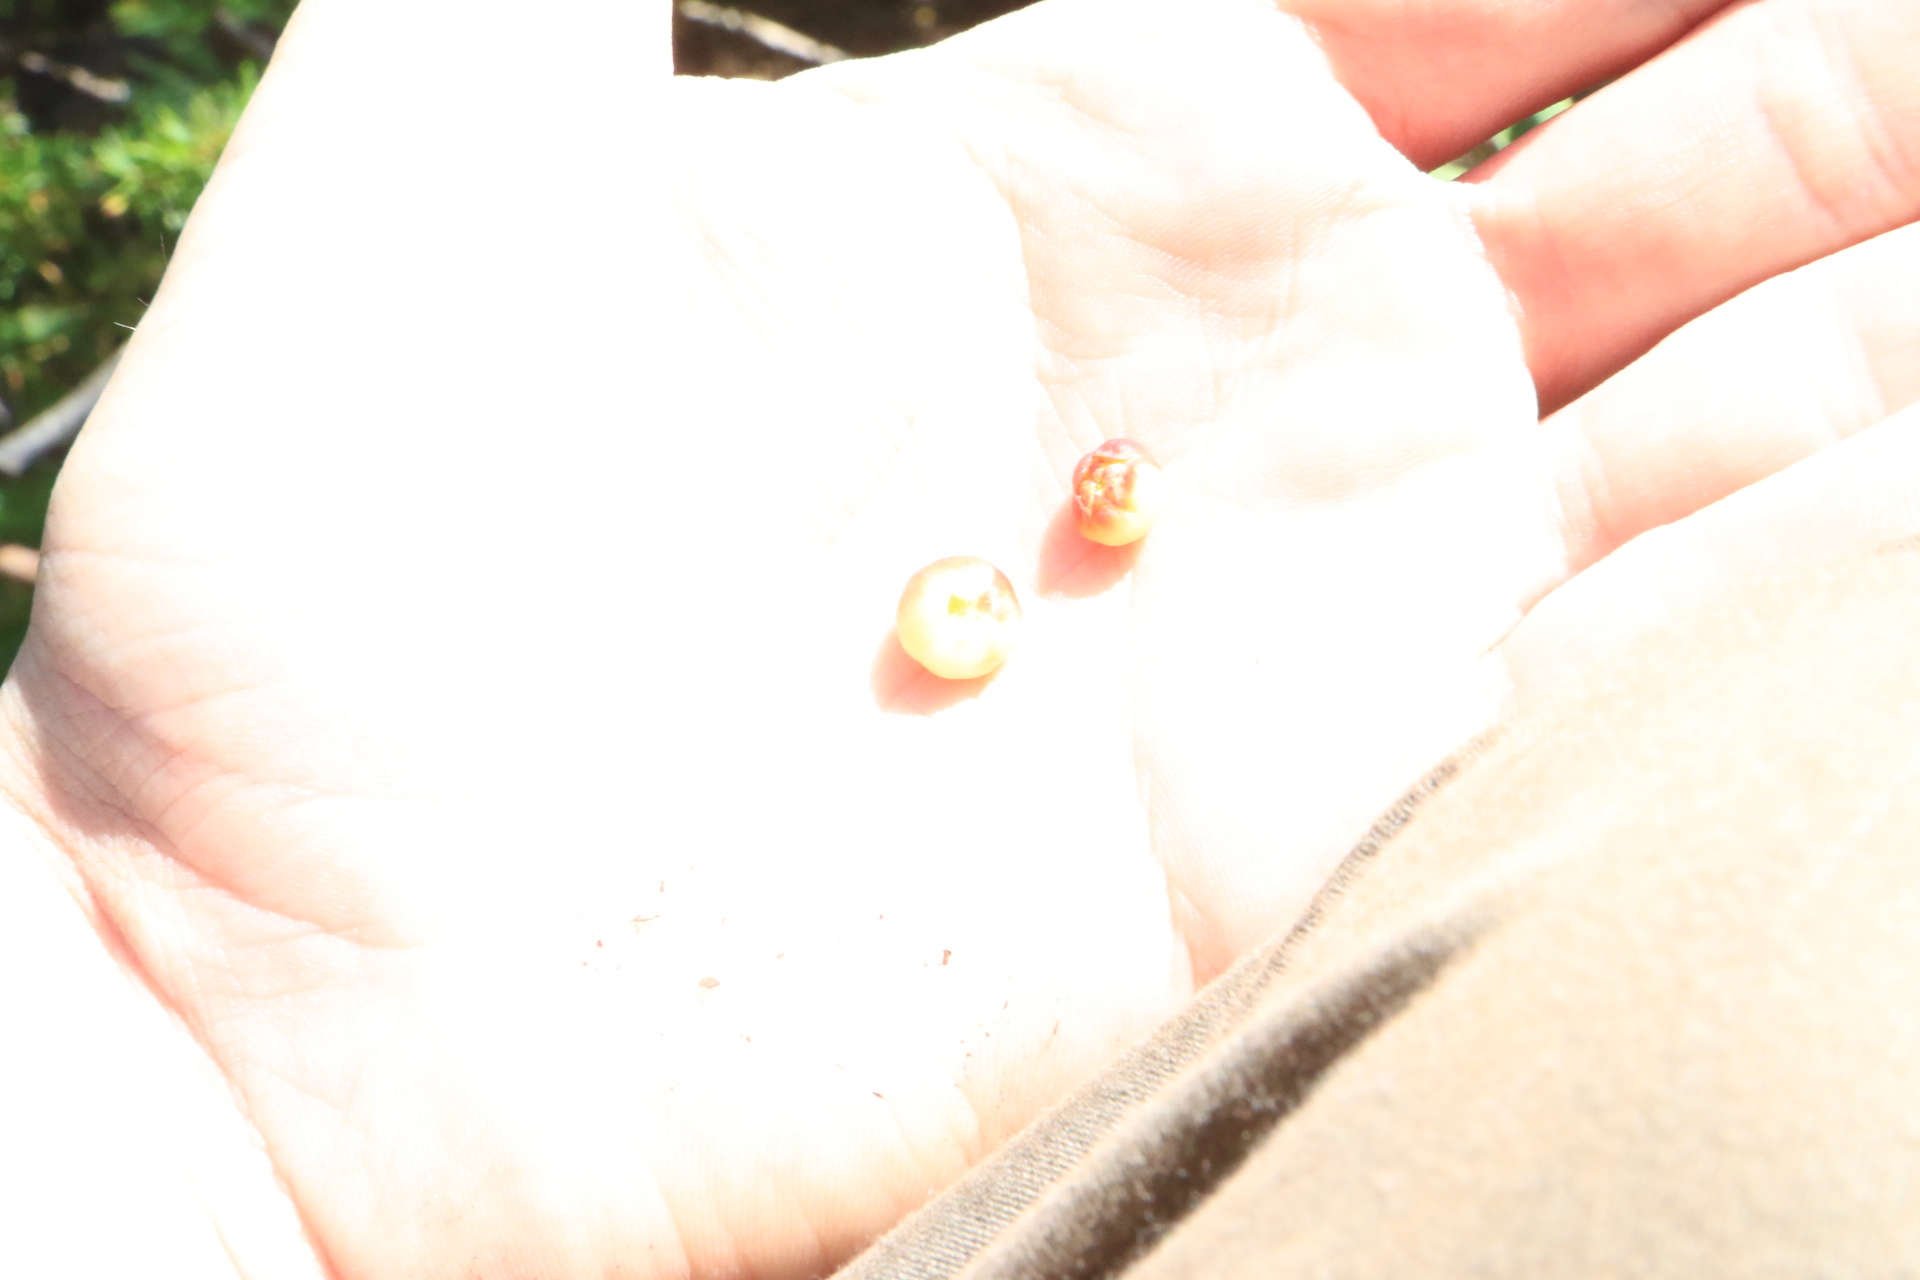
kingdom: Plantae
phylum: Tracheophyta
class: Magnoliopsida
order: Ericales
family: Ericaceae
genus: Gaultheria
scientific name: Gaultheria humifusa
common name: Alpine wintergreen
